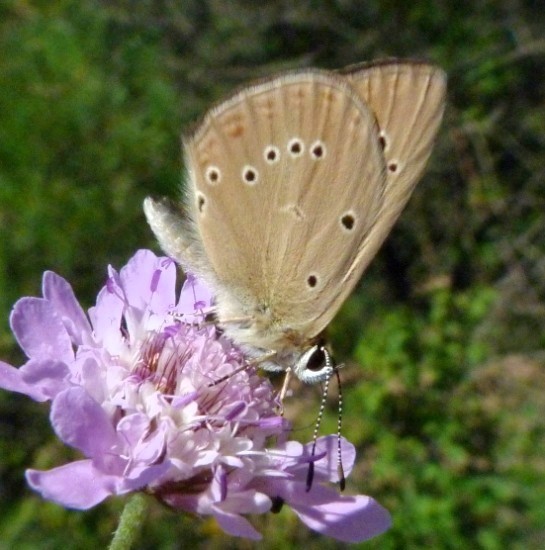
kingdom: Animalia
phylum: Arthropoda
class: Insecta
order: Lepidoptera
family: Lycaenidae
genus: Polyommatus
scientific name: Polyommatus ripartii
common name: Ripart's anomalous blue
